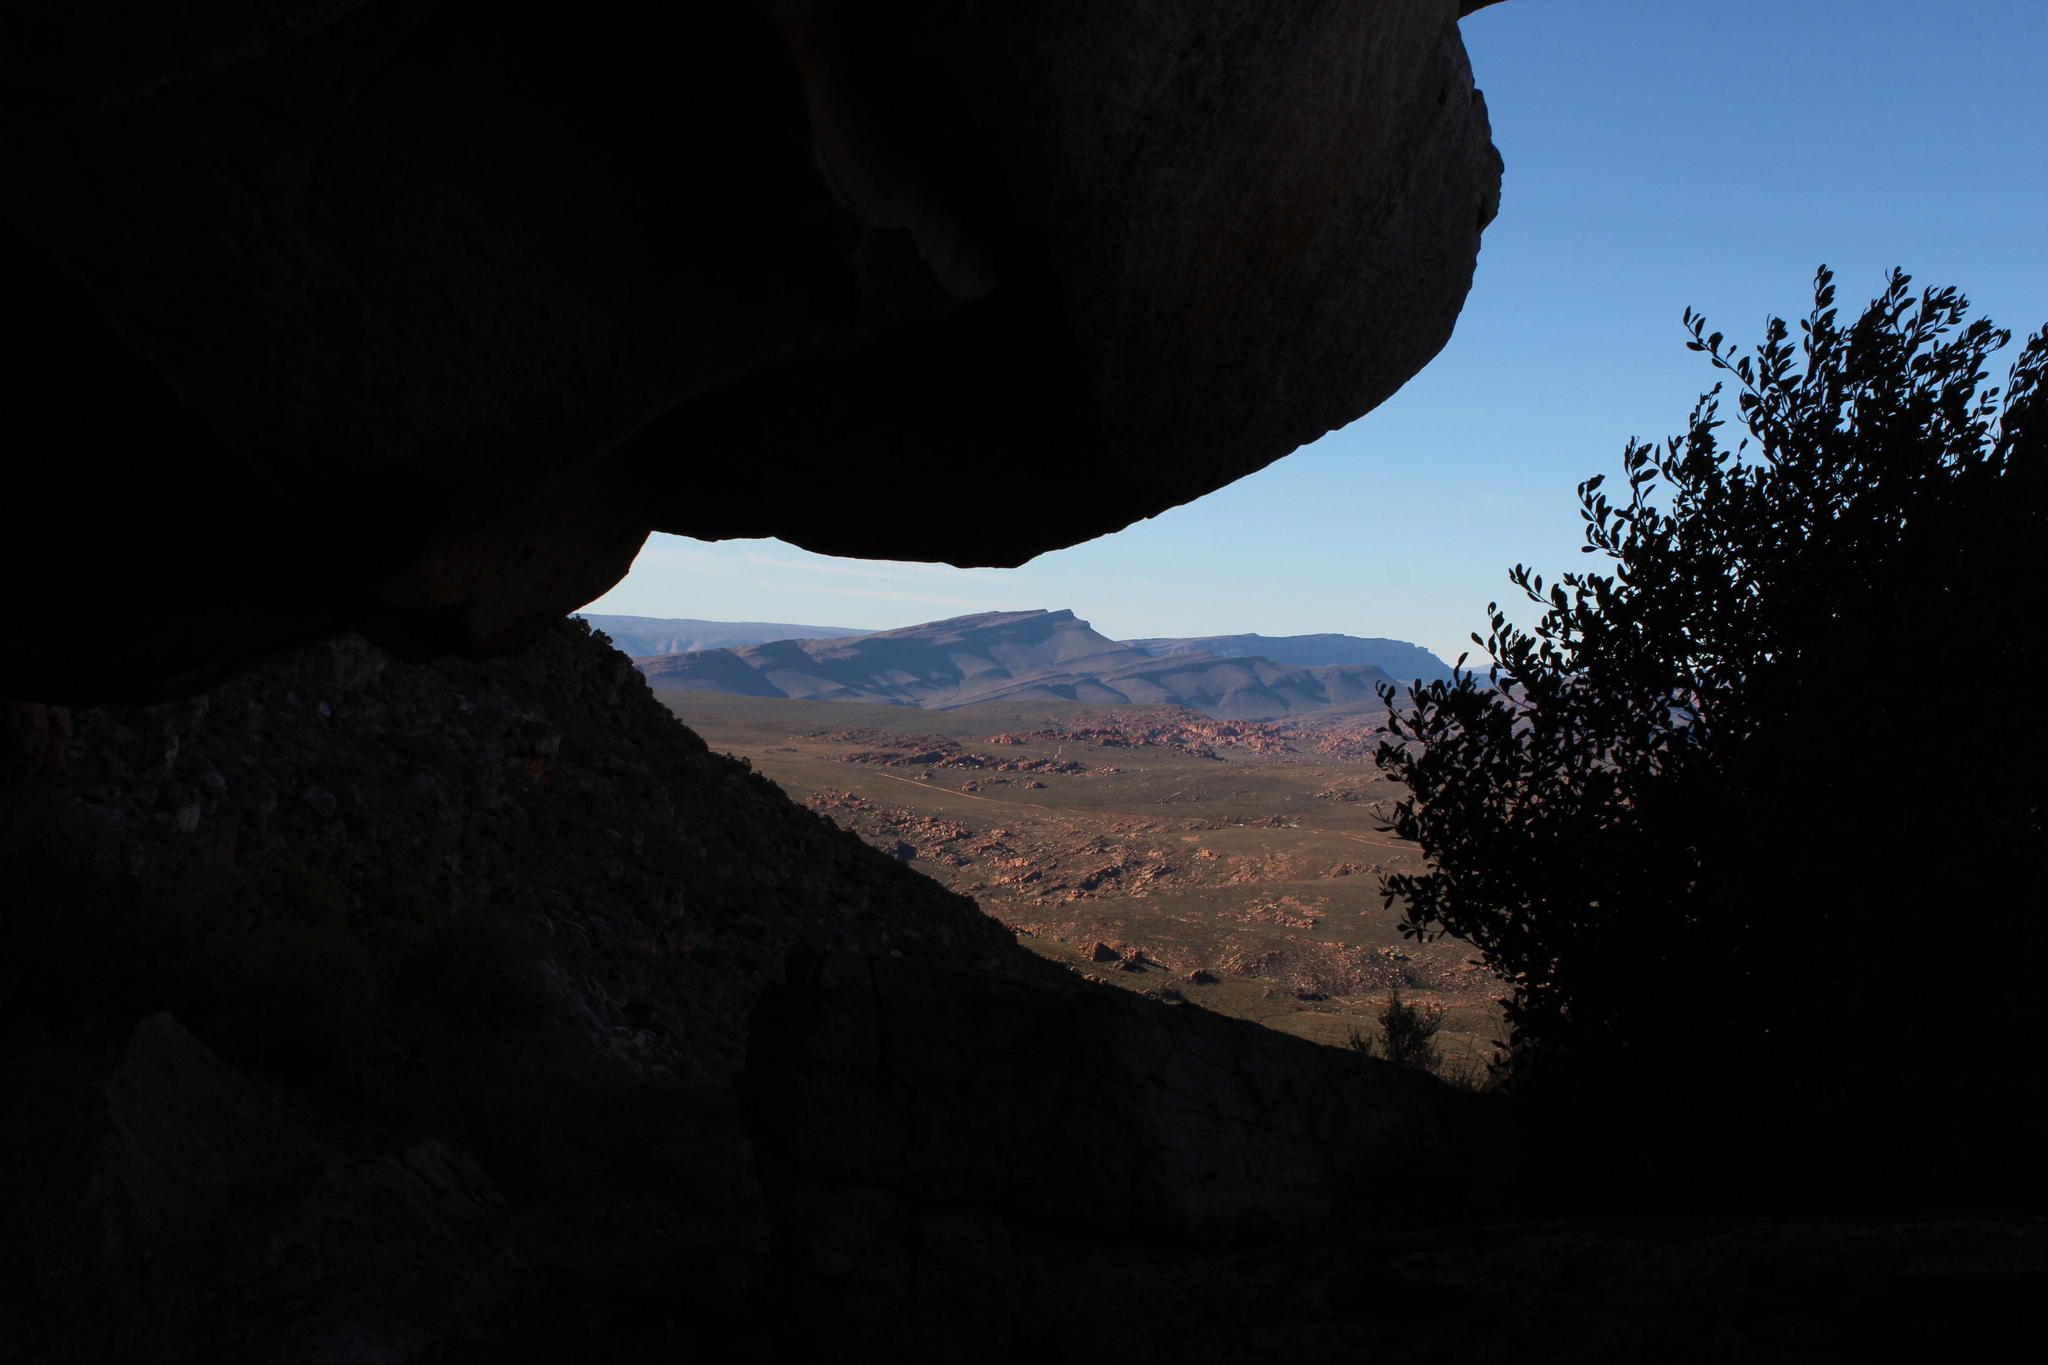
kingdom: Animalia
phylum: Chordata
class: Mammalia
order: Hyracoidea
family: Procaviidae
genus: Procavia
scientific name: Procavia capensis
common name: Rock hyrax
